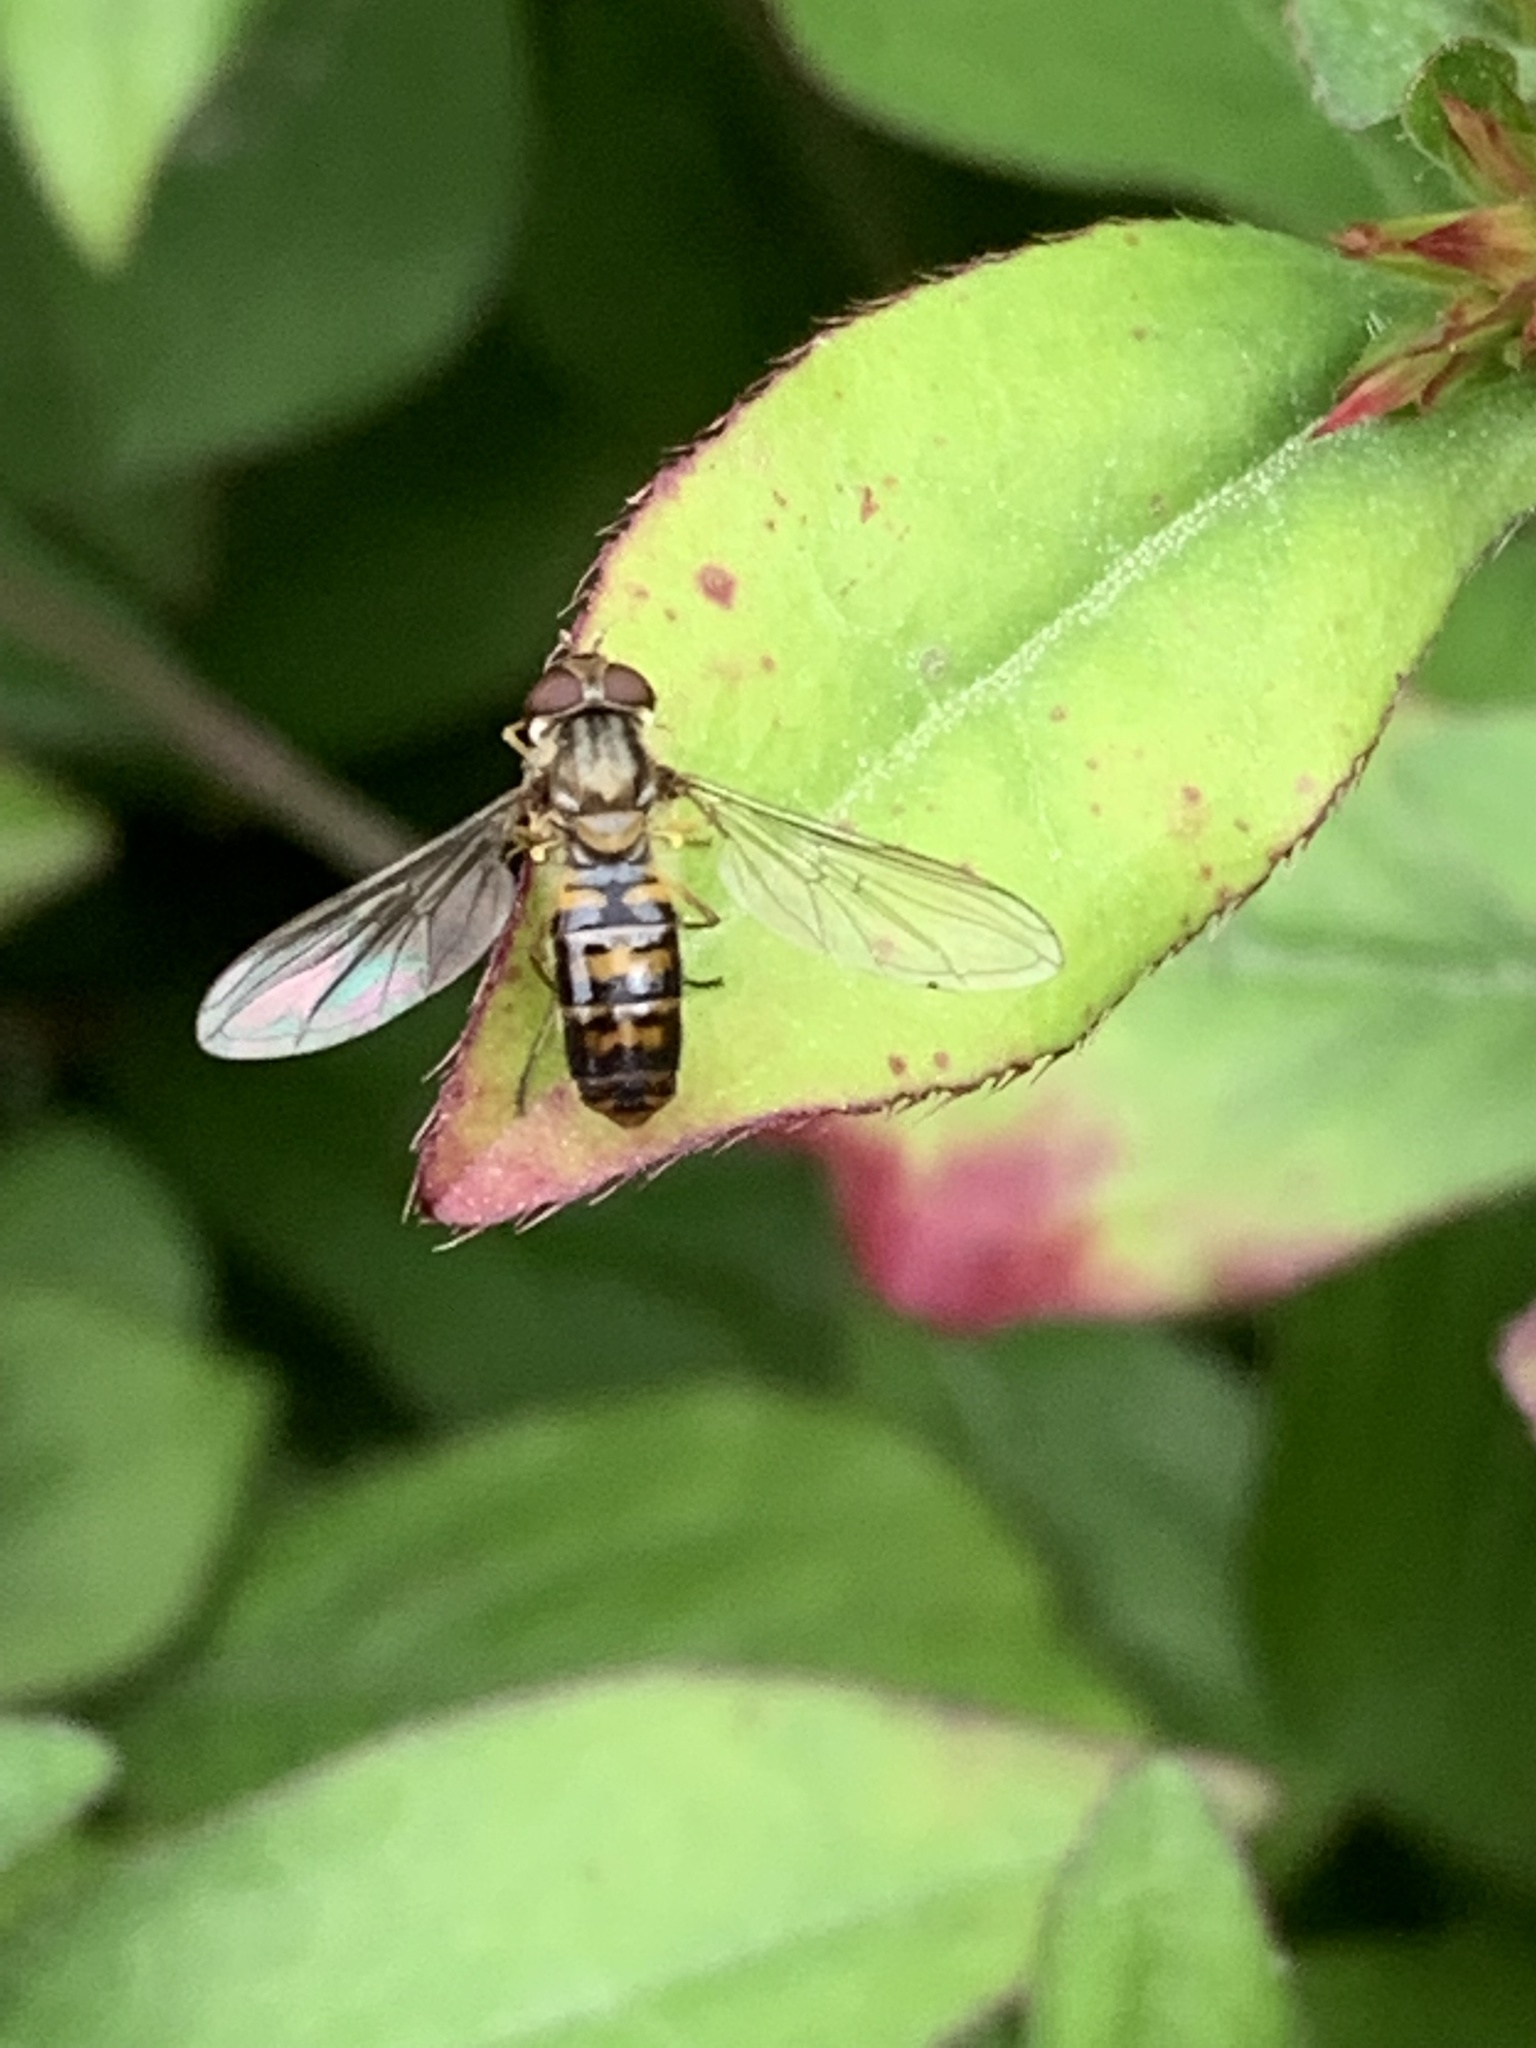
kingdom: Animalia
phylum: Arthropoda
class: Insecta
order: Diptera
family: Syrphidae
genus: Episyrphus
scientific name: Episyrphus balteatus
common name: Marmalade hoverfly
